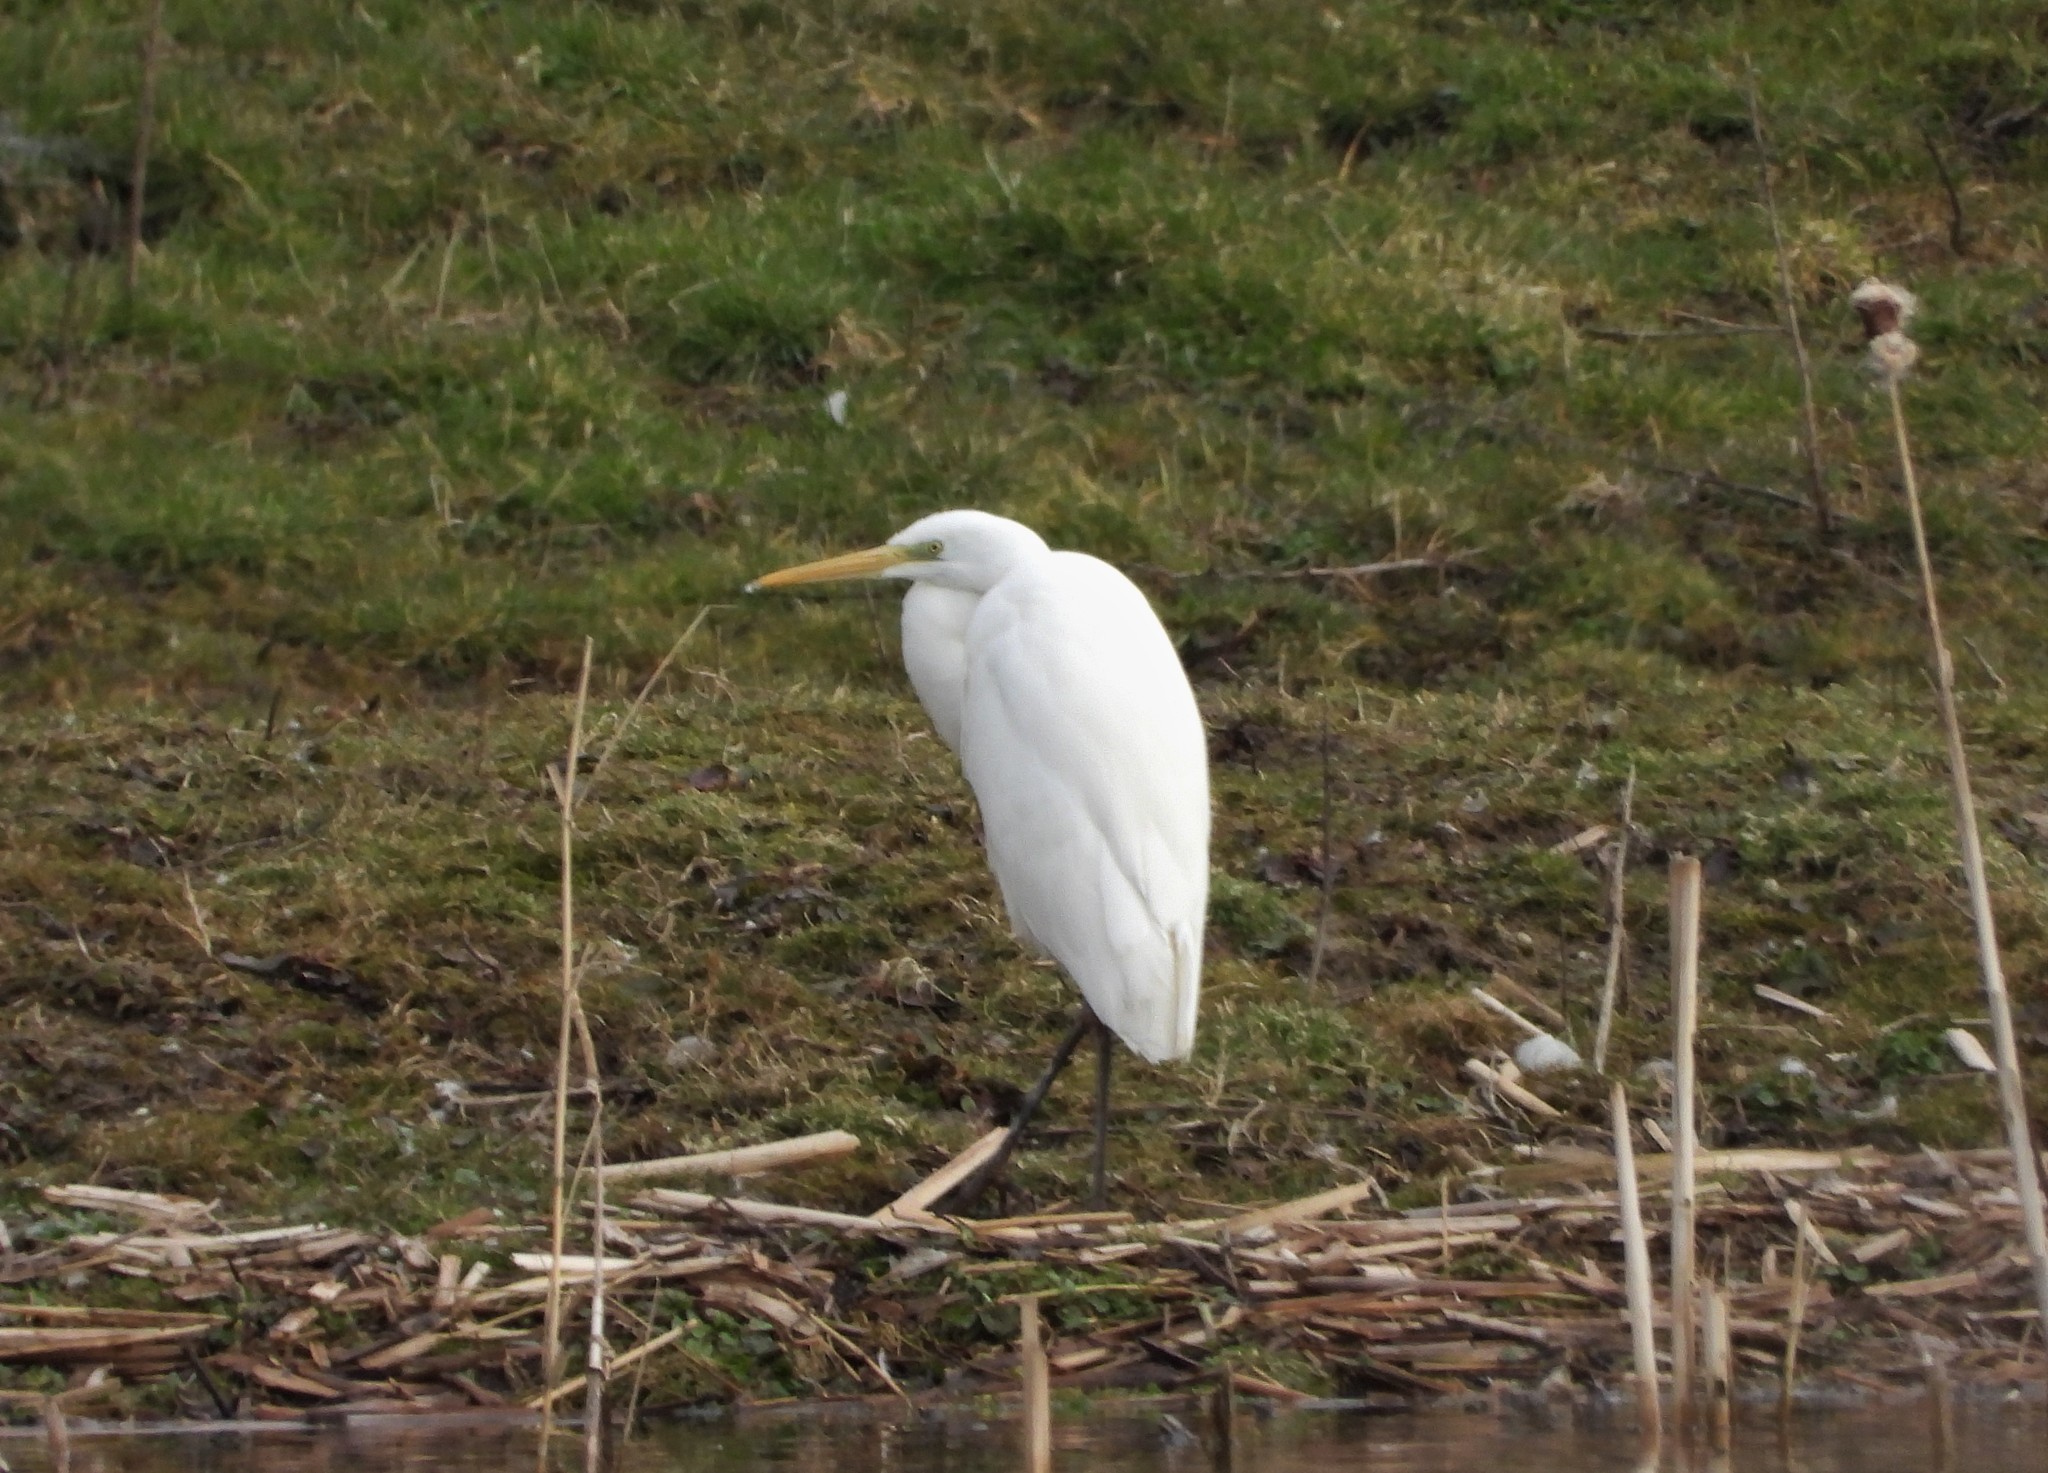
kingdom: Animalia
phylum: Chordata
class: Aves
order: Pelecaniformes
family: Ardeidae
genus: Ardea
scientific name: Ardea alba
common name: Great egret
